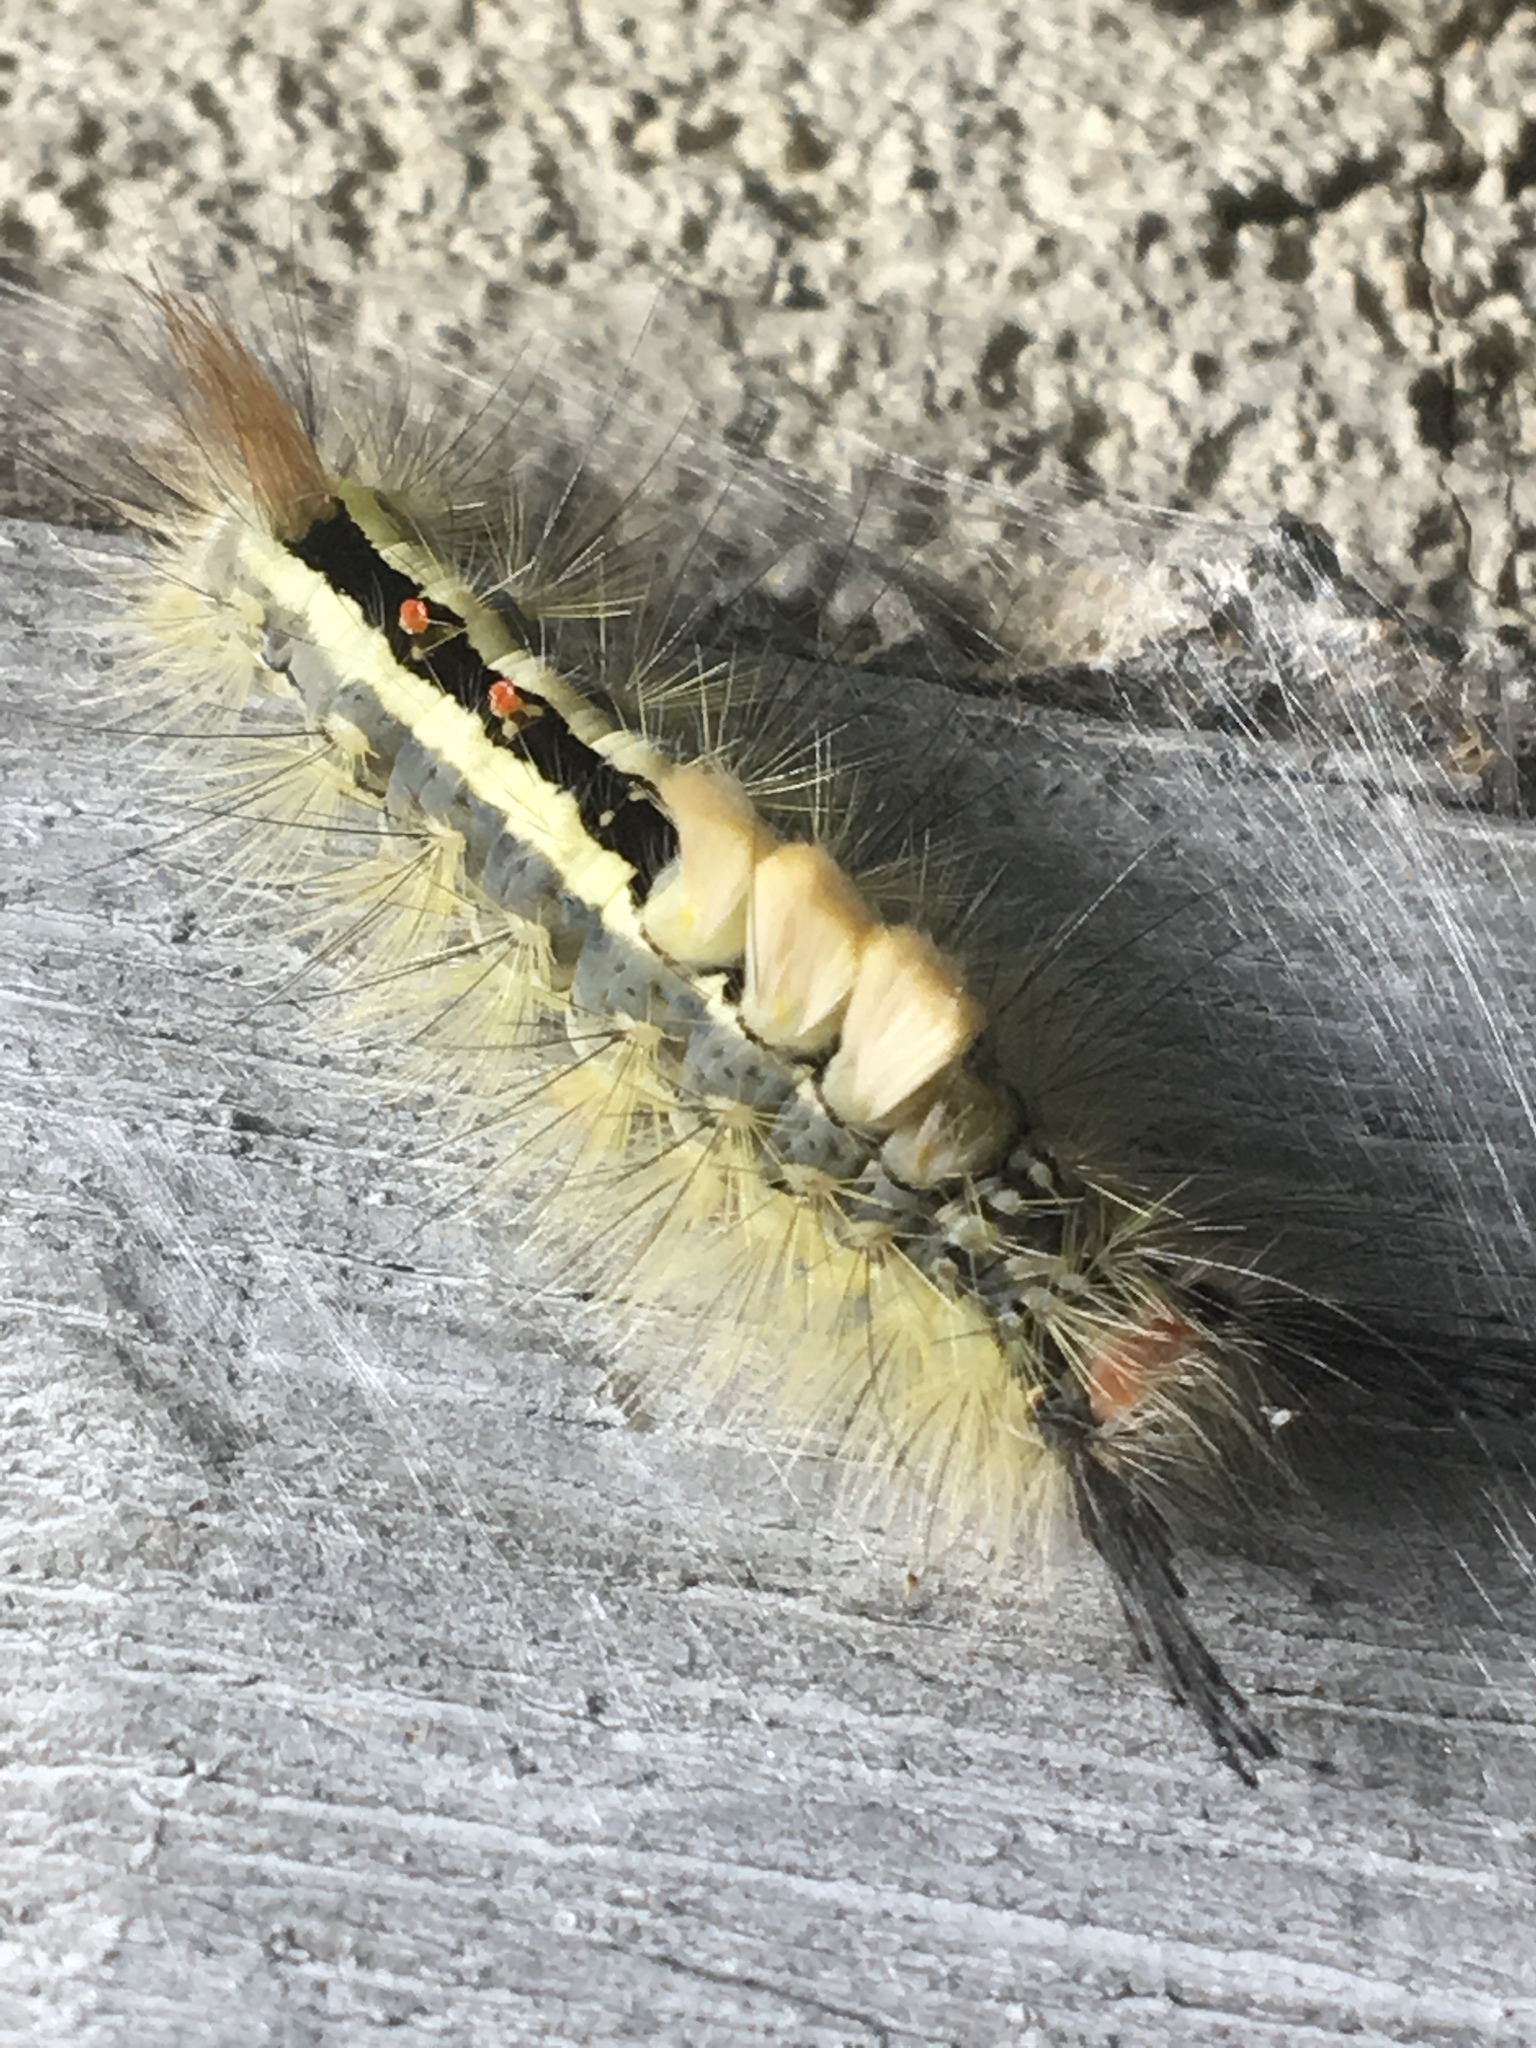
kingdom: Animalia
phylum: Arthropoda
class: Insecta
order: Lepidoptera
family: Erebidae
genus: Orgyia
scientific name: Orgyia leucostigma
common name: White-marked tussock moth
